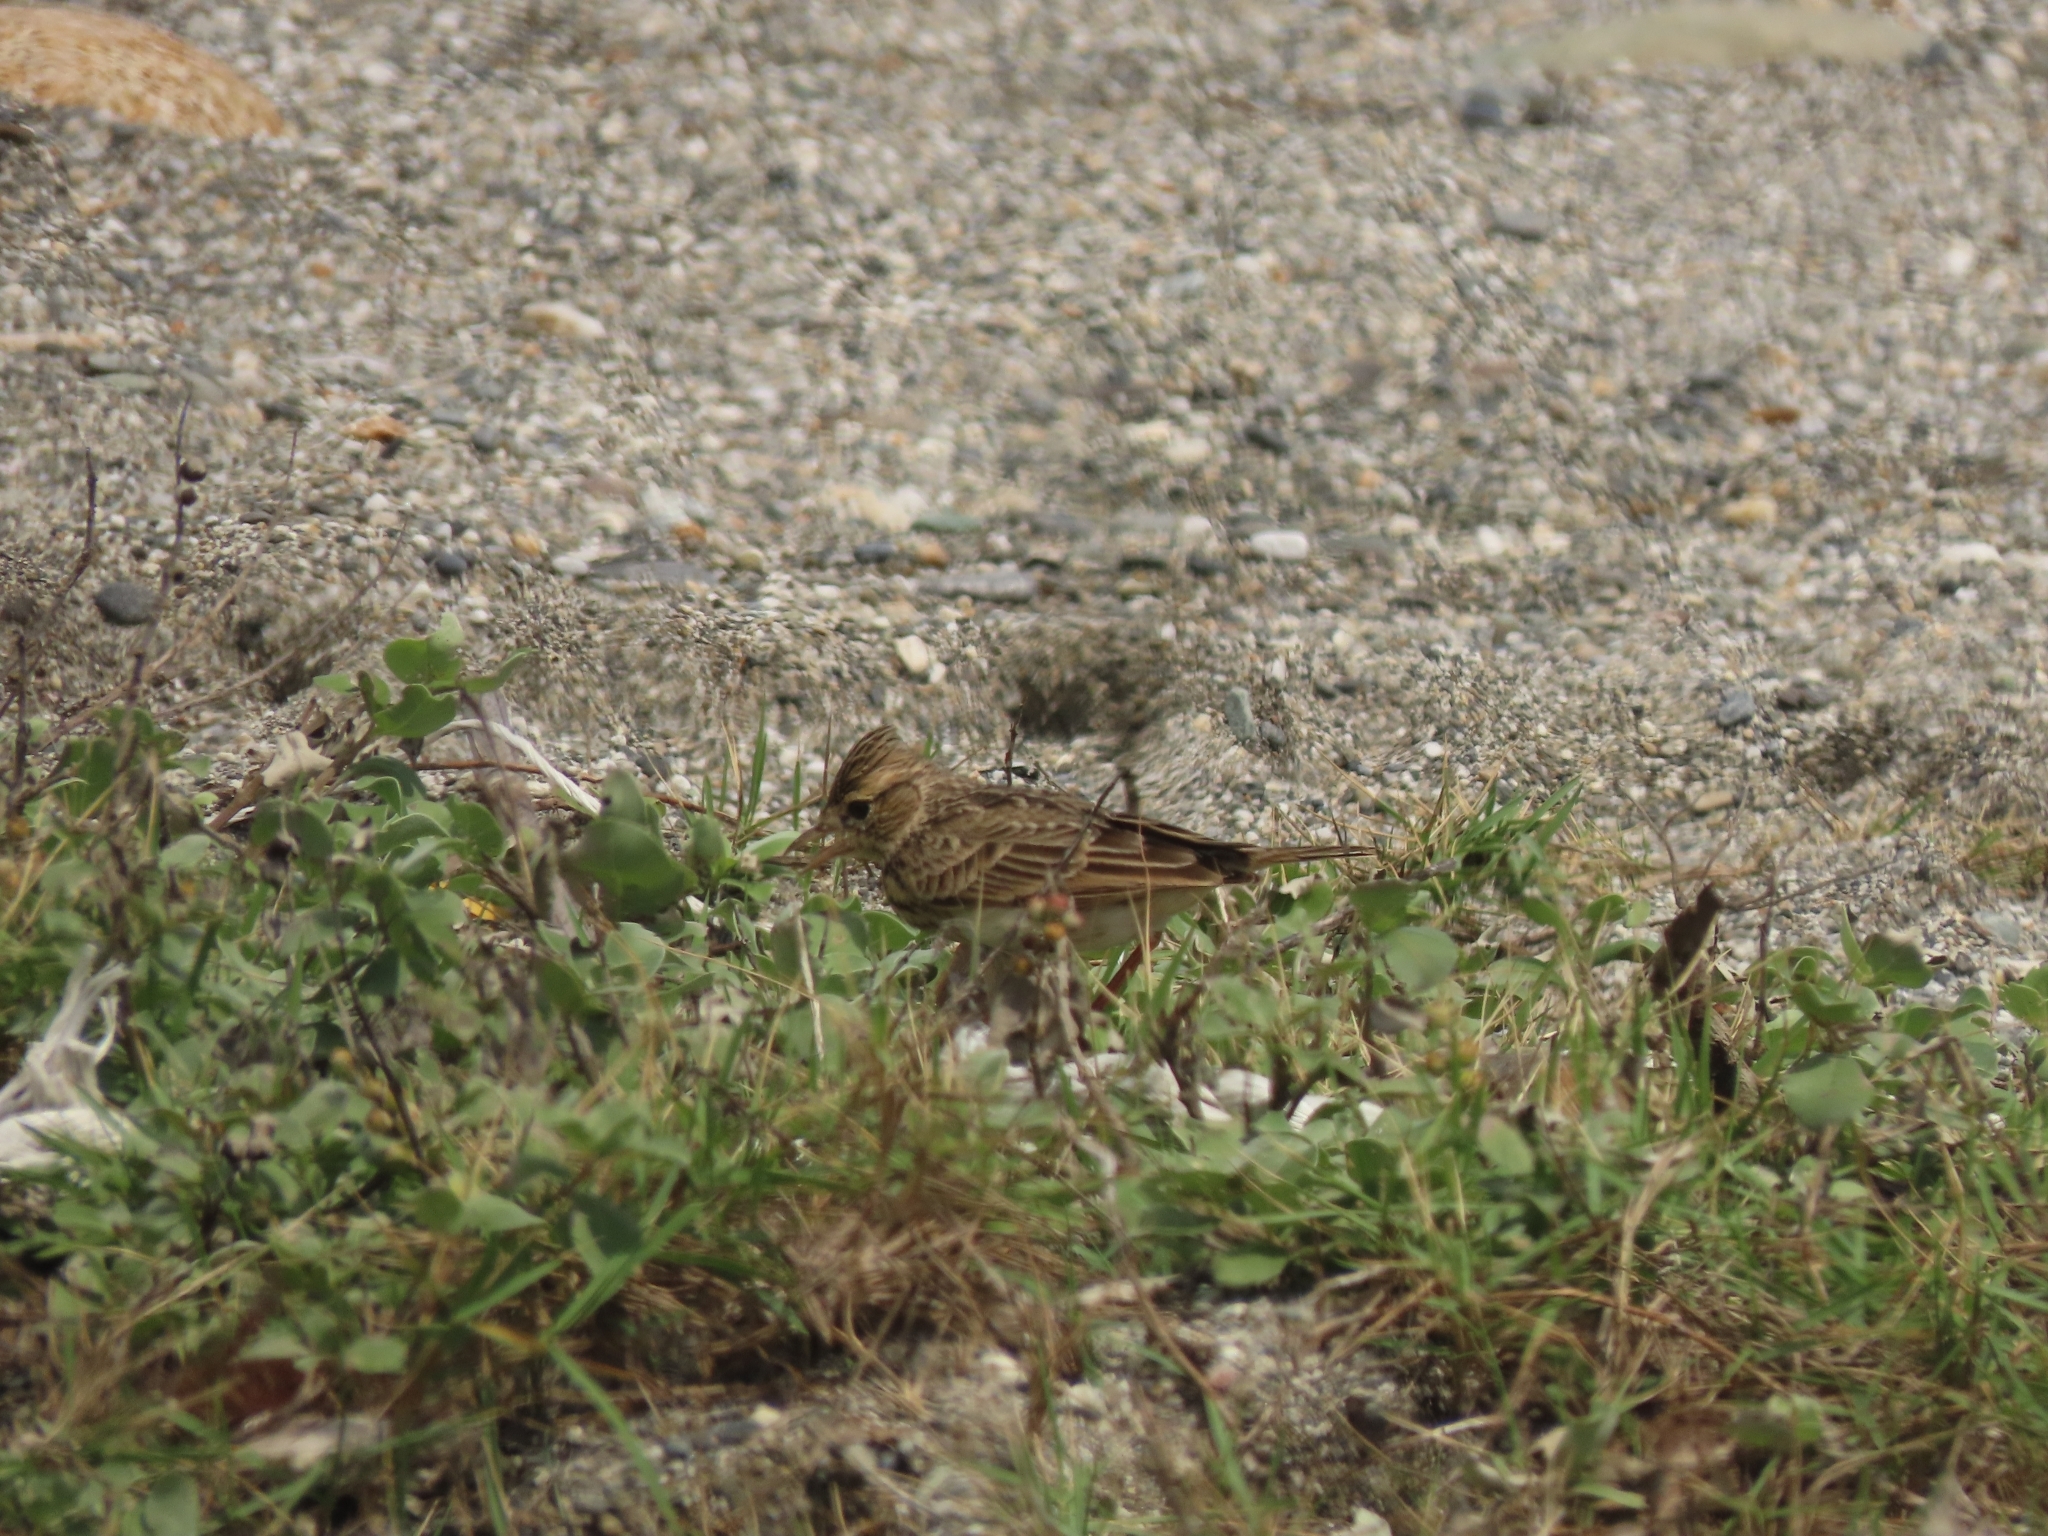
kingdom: Animalia
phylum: Chordata
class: Aves
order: Passeriformes
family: Alaudidae
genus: Alauda
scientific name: Alauda gulgula
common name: Oriental skylark
